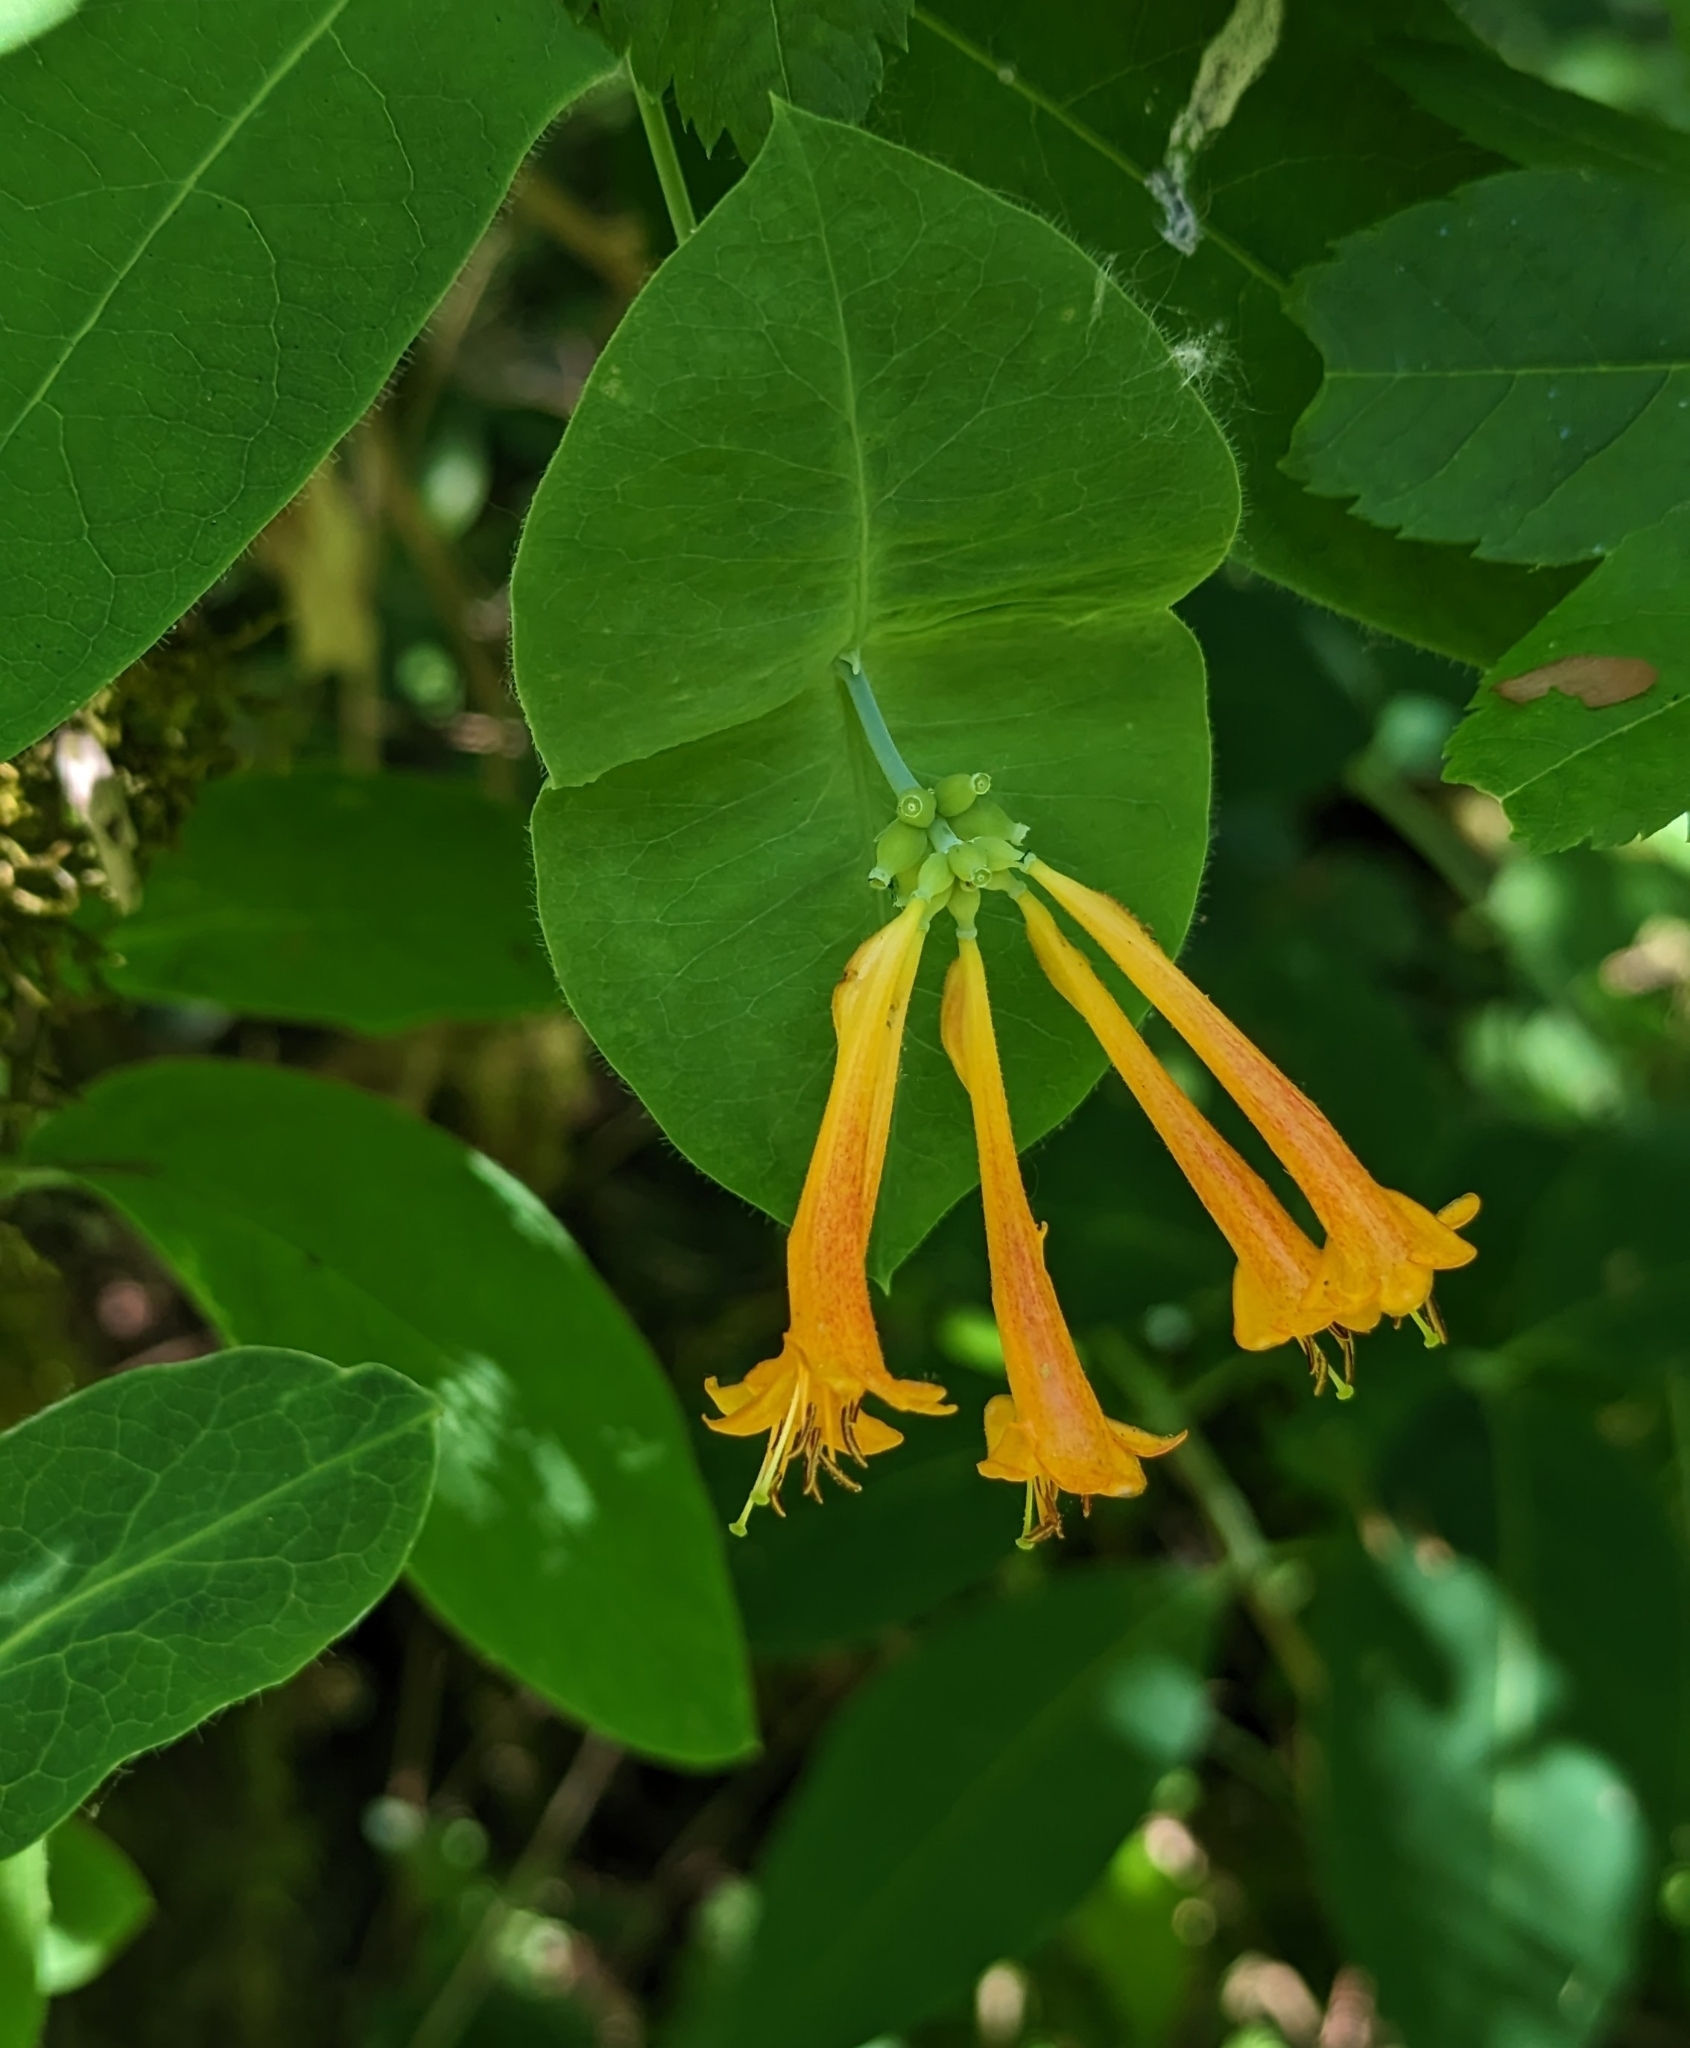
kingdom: Plantae
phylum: Tracheophyta
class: Magnoliopsida
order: Dipsacales
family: Caprifoliaceae
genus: Lonicera
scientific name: Lonicera ciliosa
